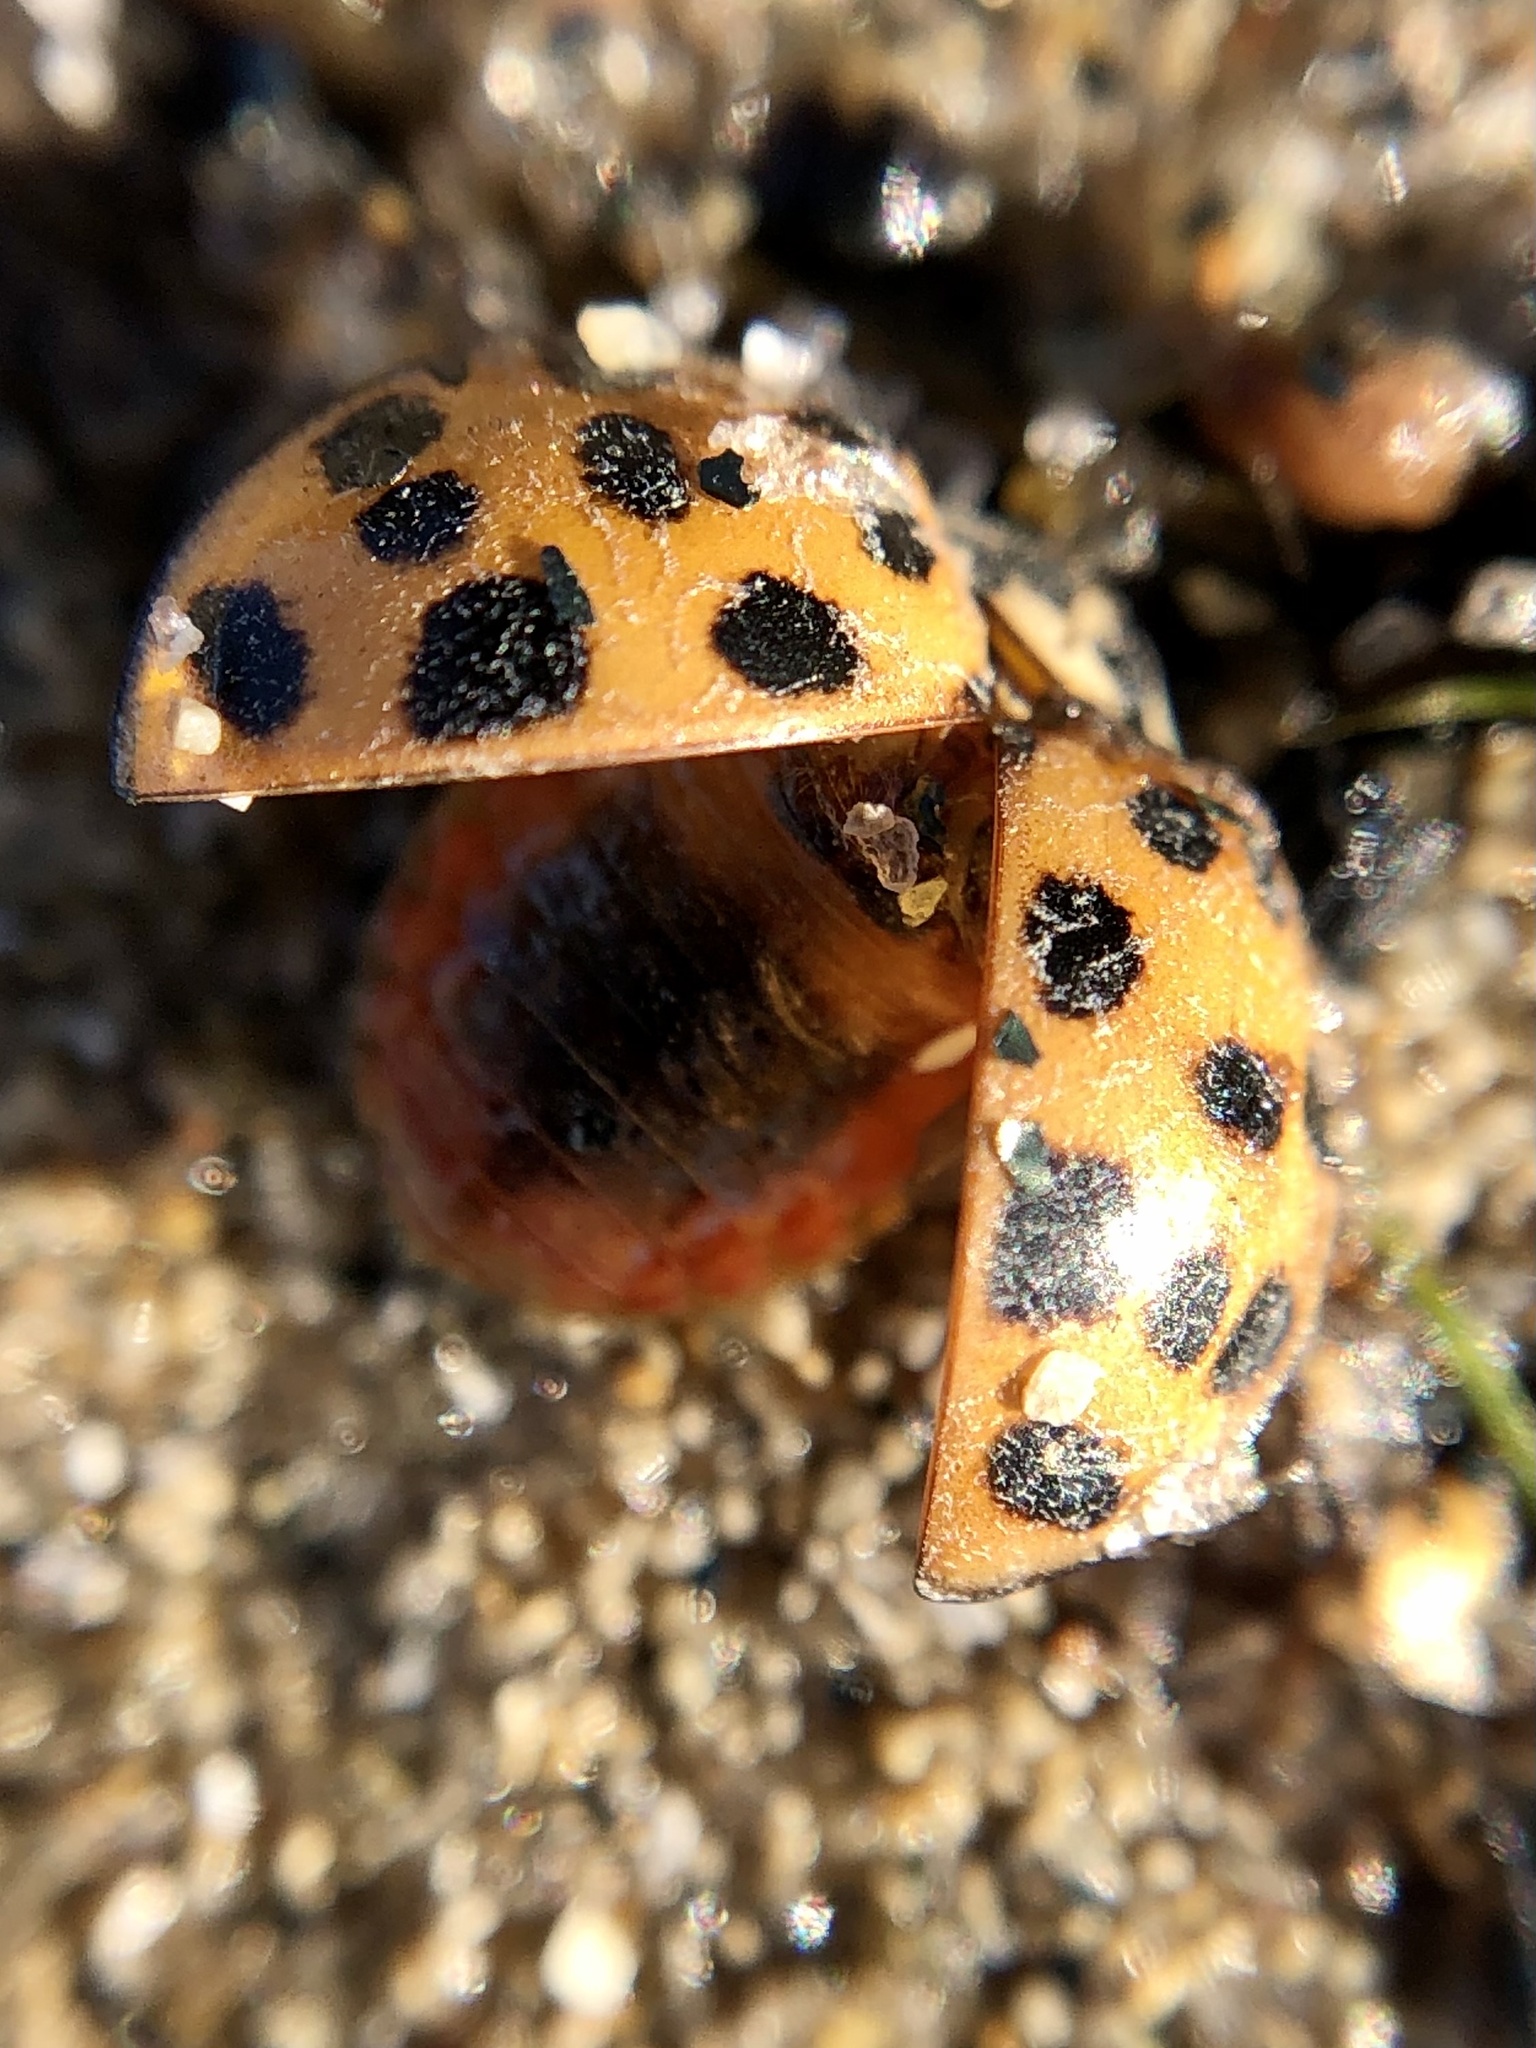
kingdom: Animalia
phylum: Arthropoda
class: Insecta
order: Coleoptera
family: Coccinellidae
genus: Harmonia
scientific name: Harmonia axyridis
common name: Harlequin ladybird
